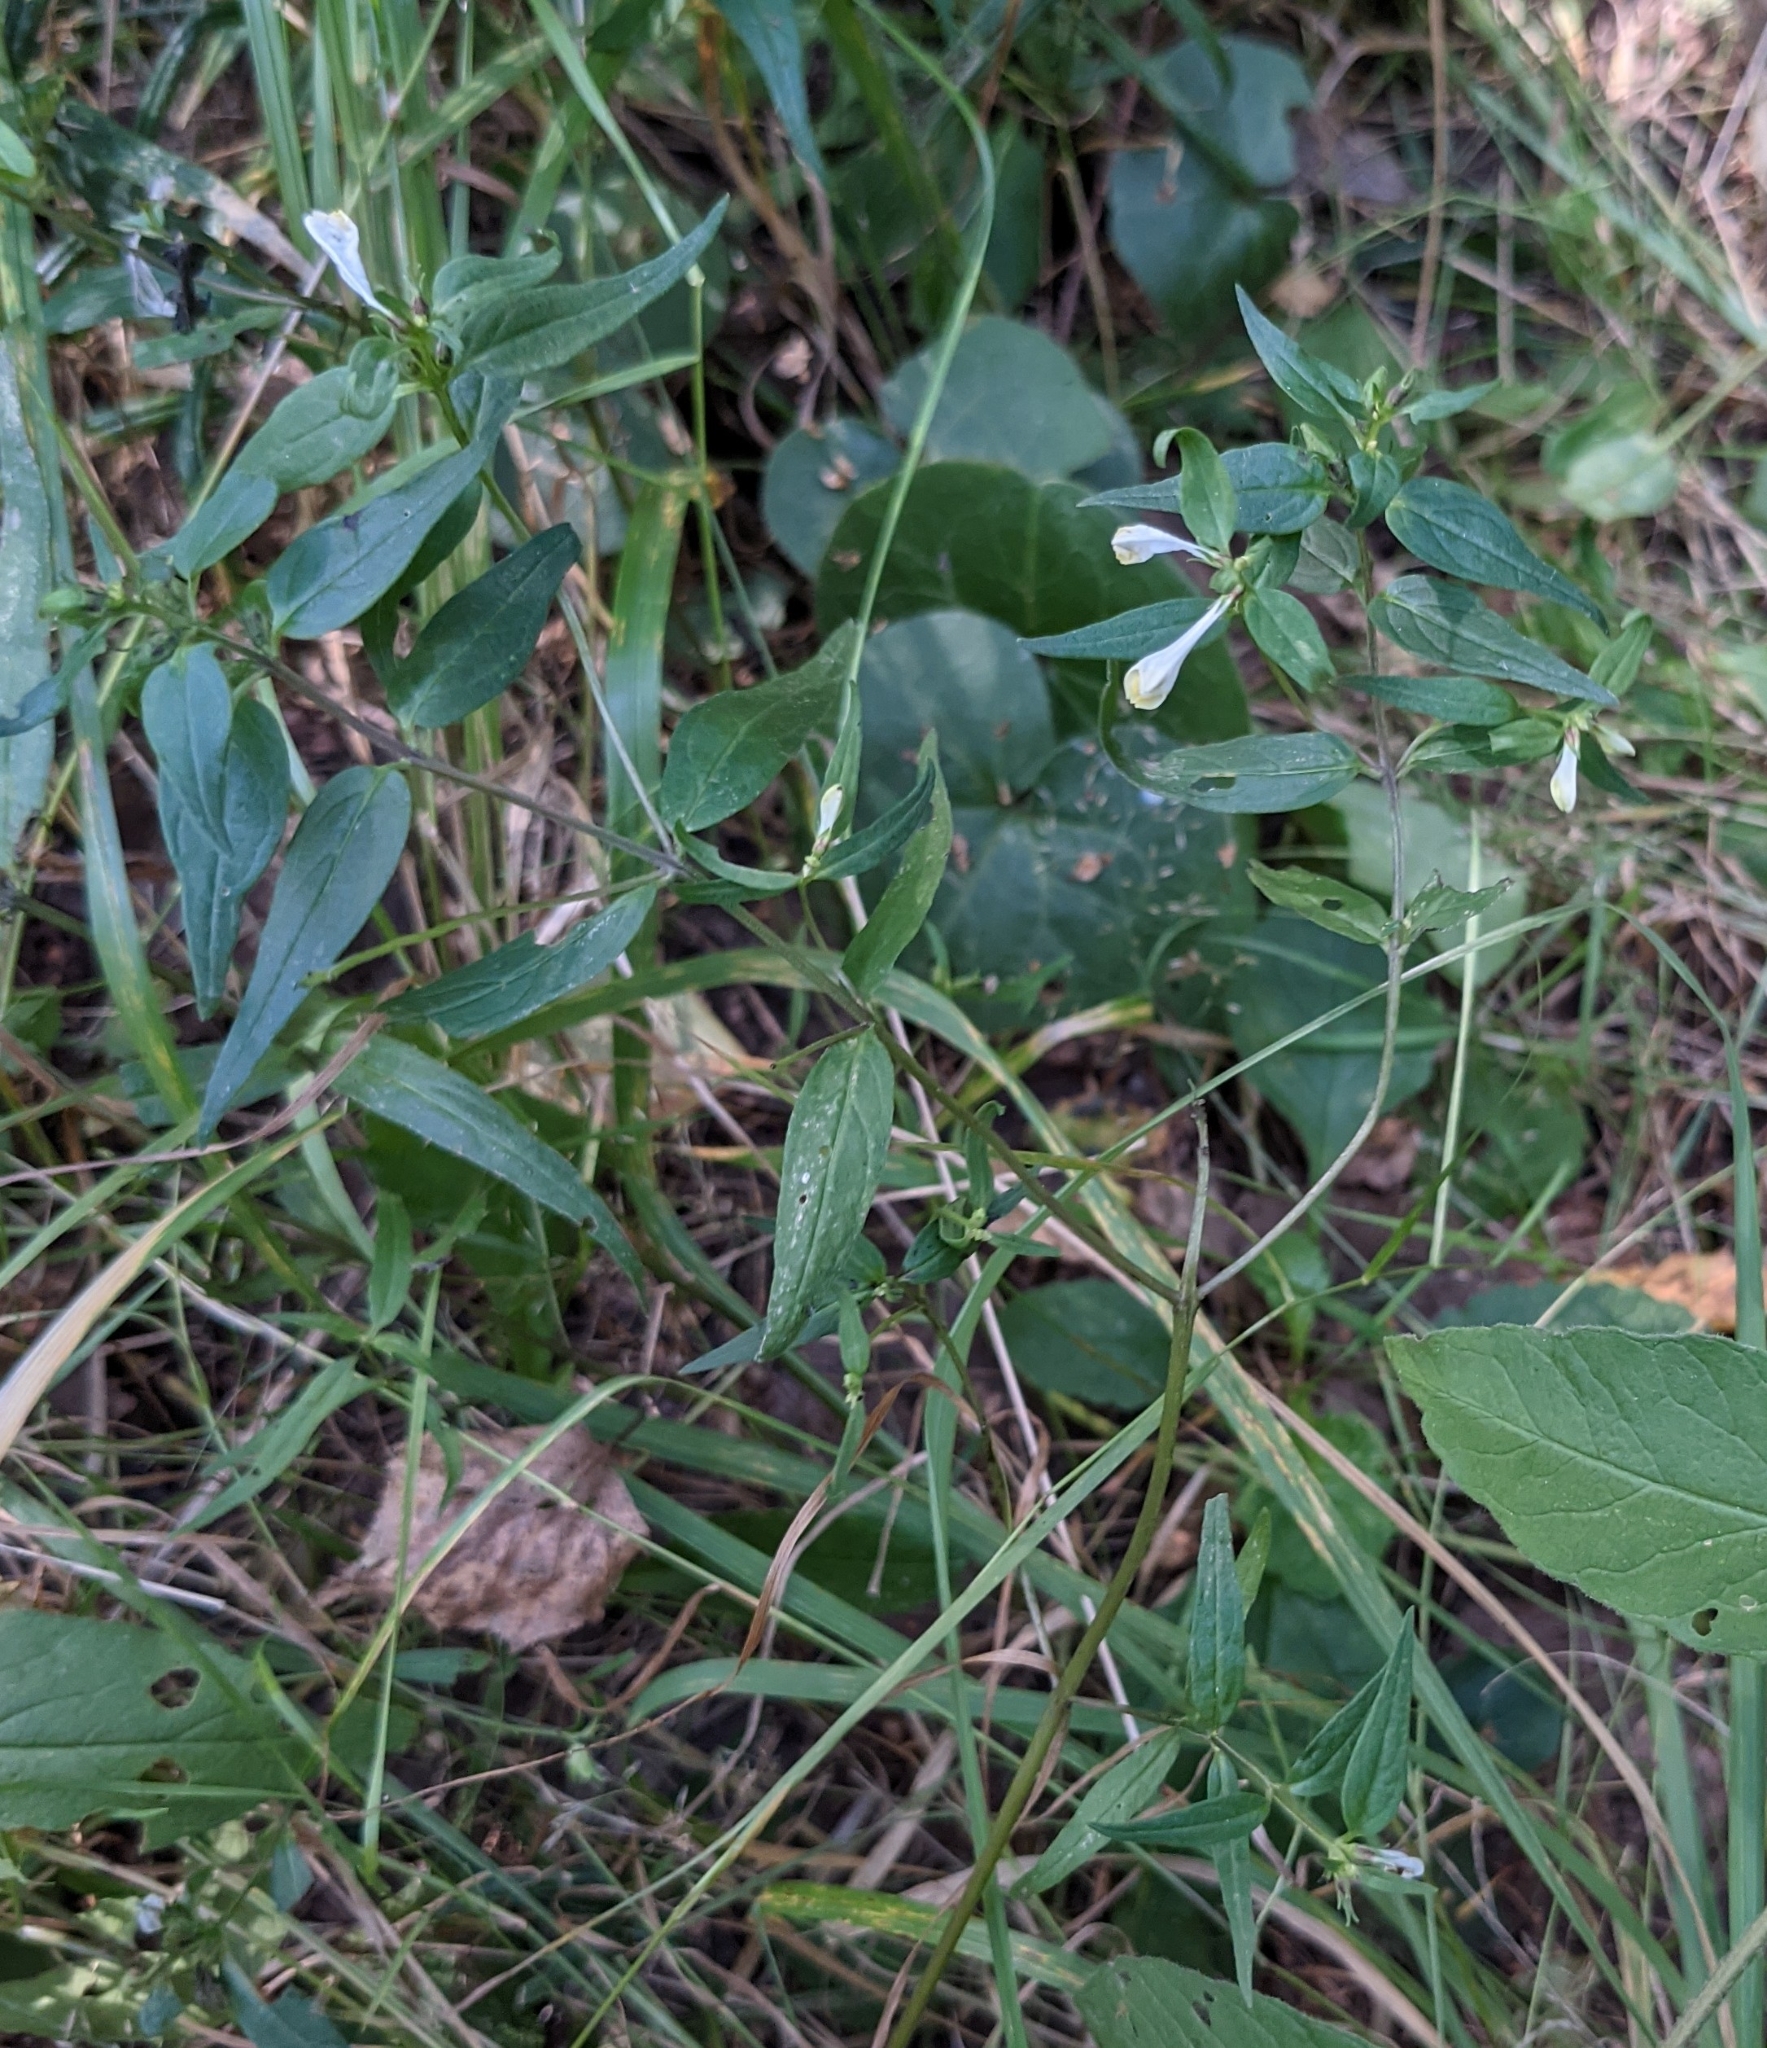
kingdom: Plantae
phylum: Tracheophyta
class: Magnoliopsida
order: Lamiales
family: Orobanchaceae
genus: Melampyrum
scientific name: Melampyrum pratense
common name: Common cow-wheat
